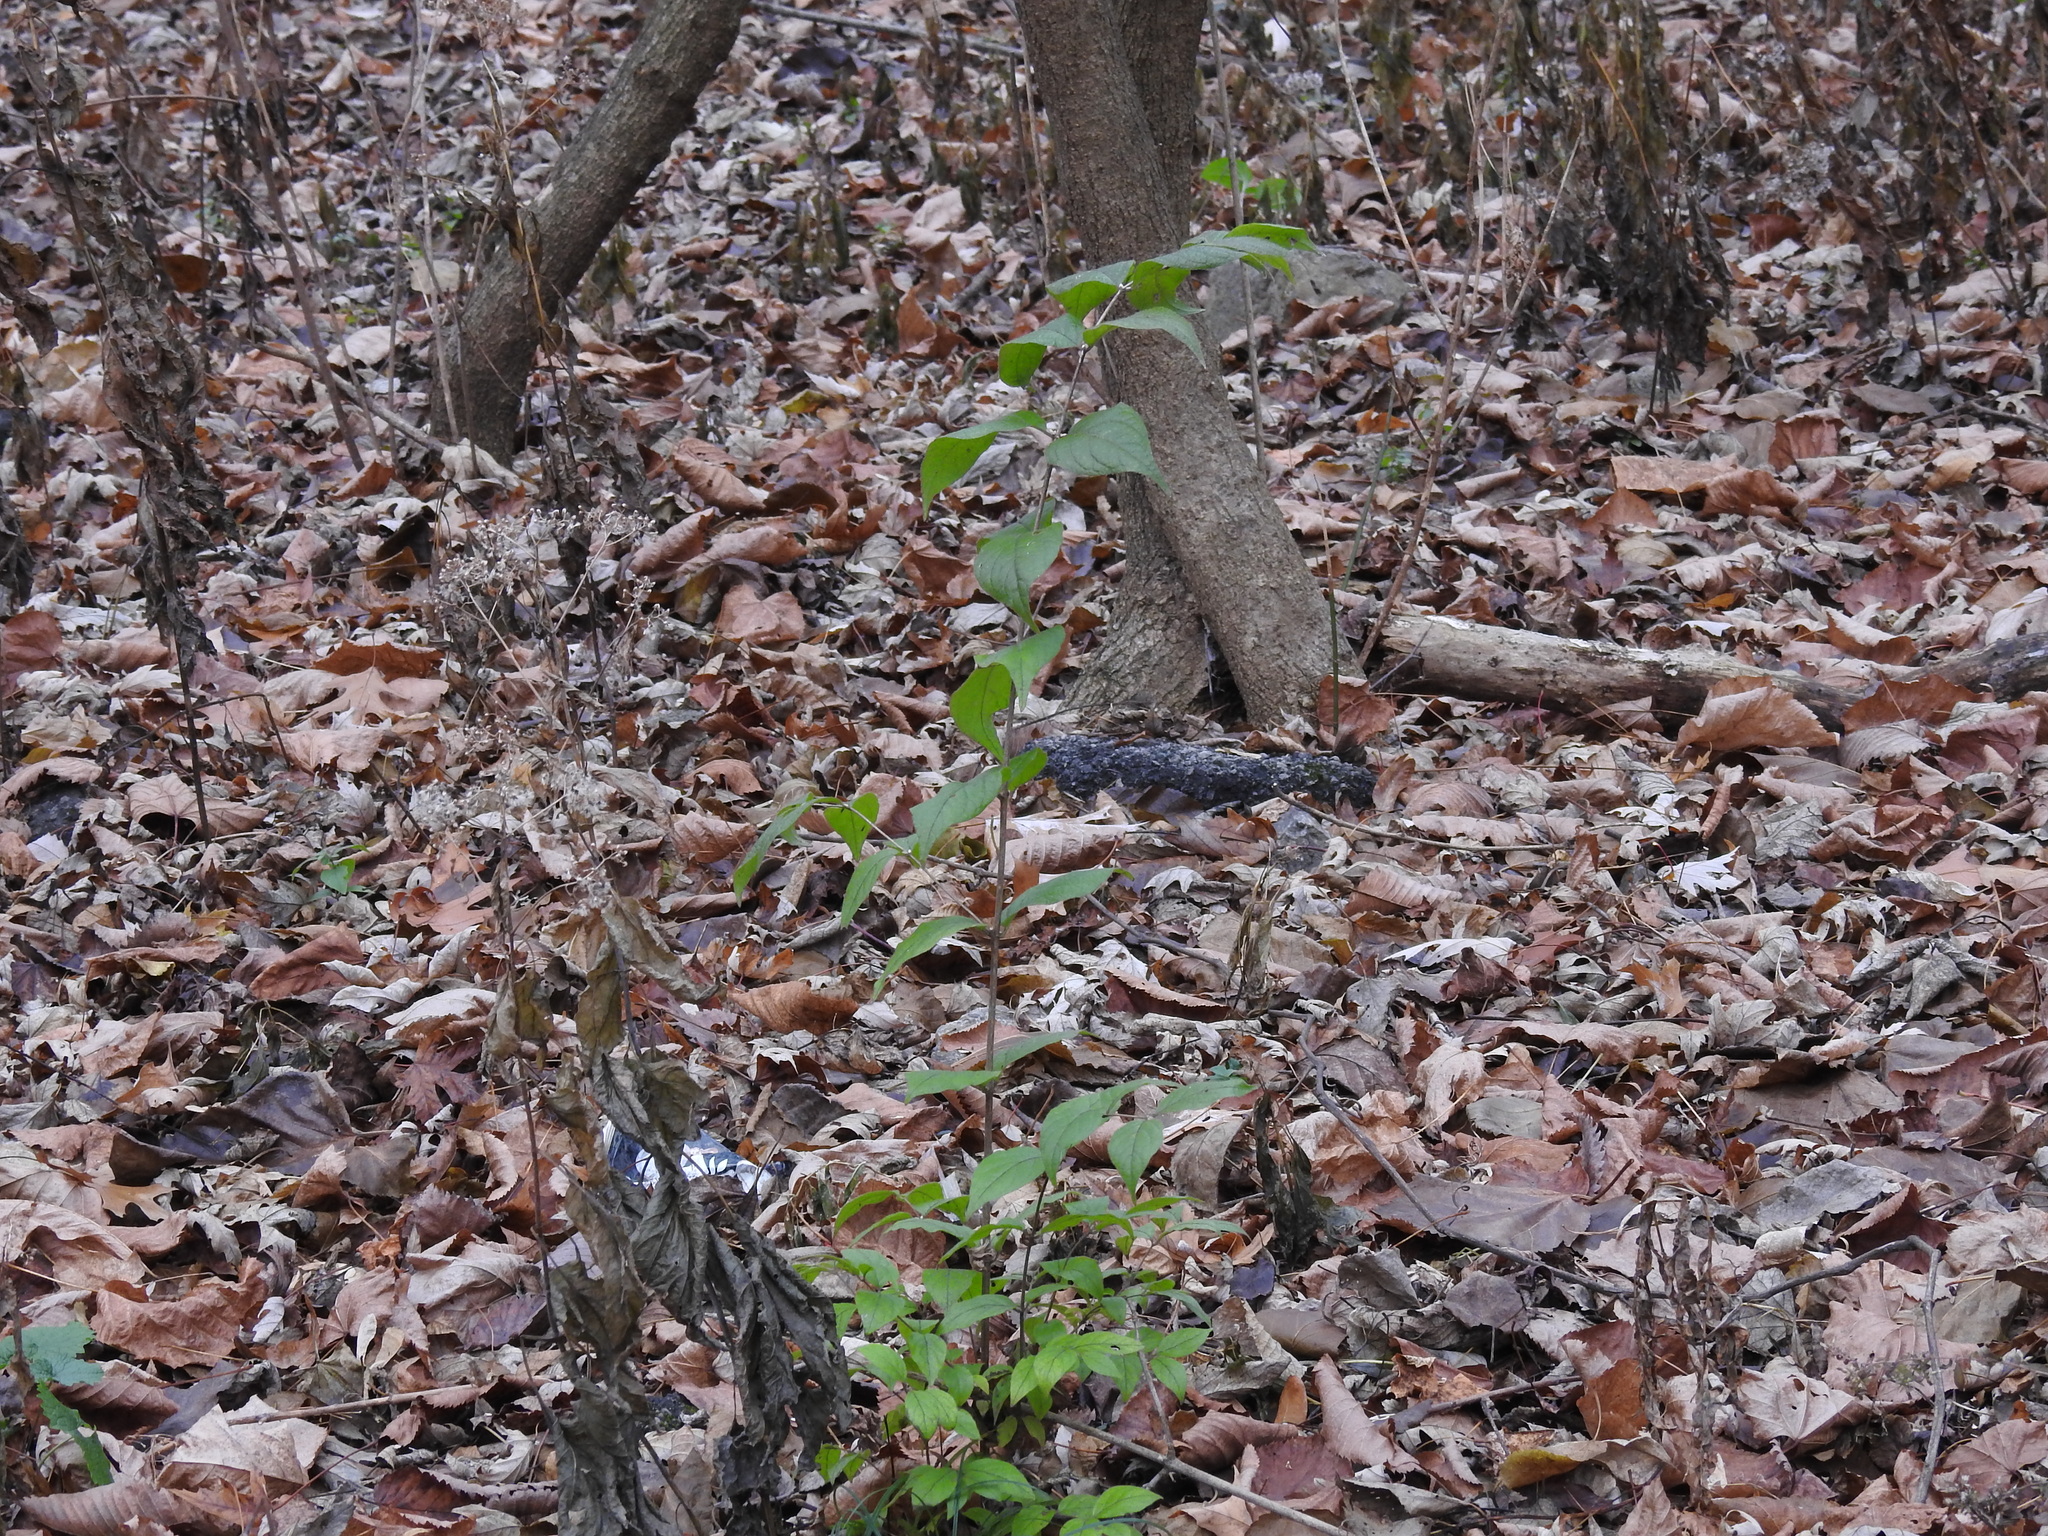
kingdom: Plantae
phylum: Tracheophyta
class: Magnoliopsida
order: Dipsacales
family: Caprifoliaceae
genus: Lonicera
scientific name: Lonicera maackii
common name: Amur honeysuckle
